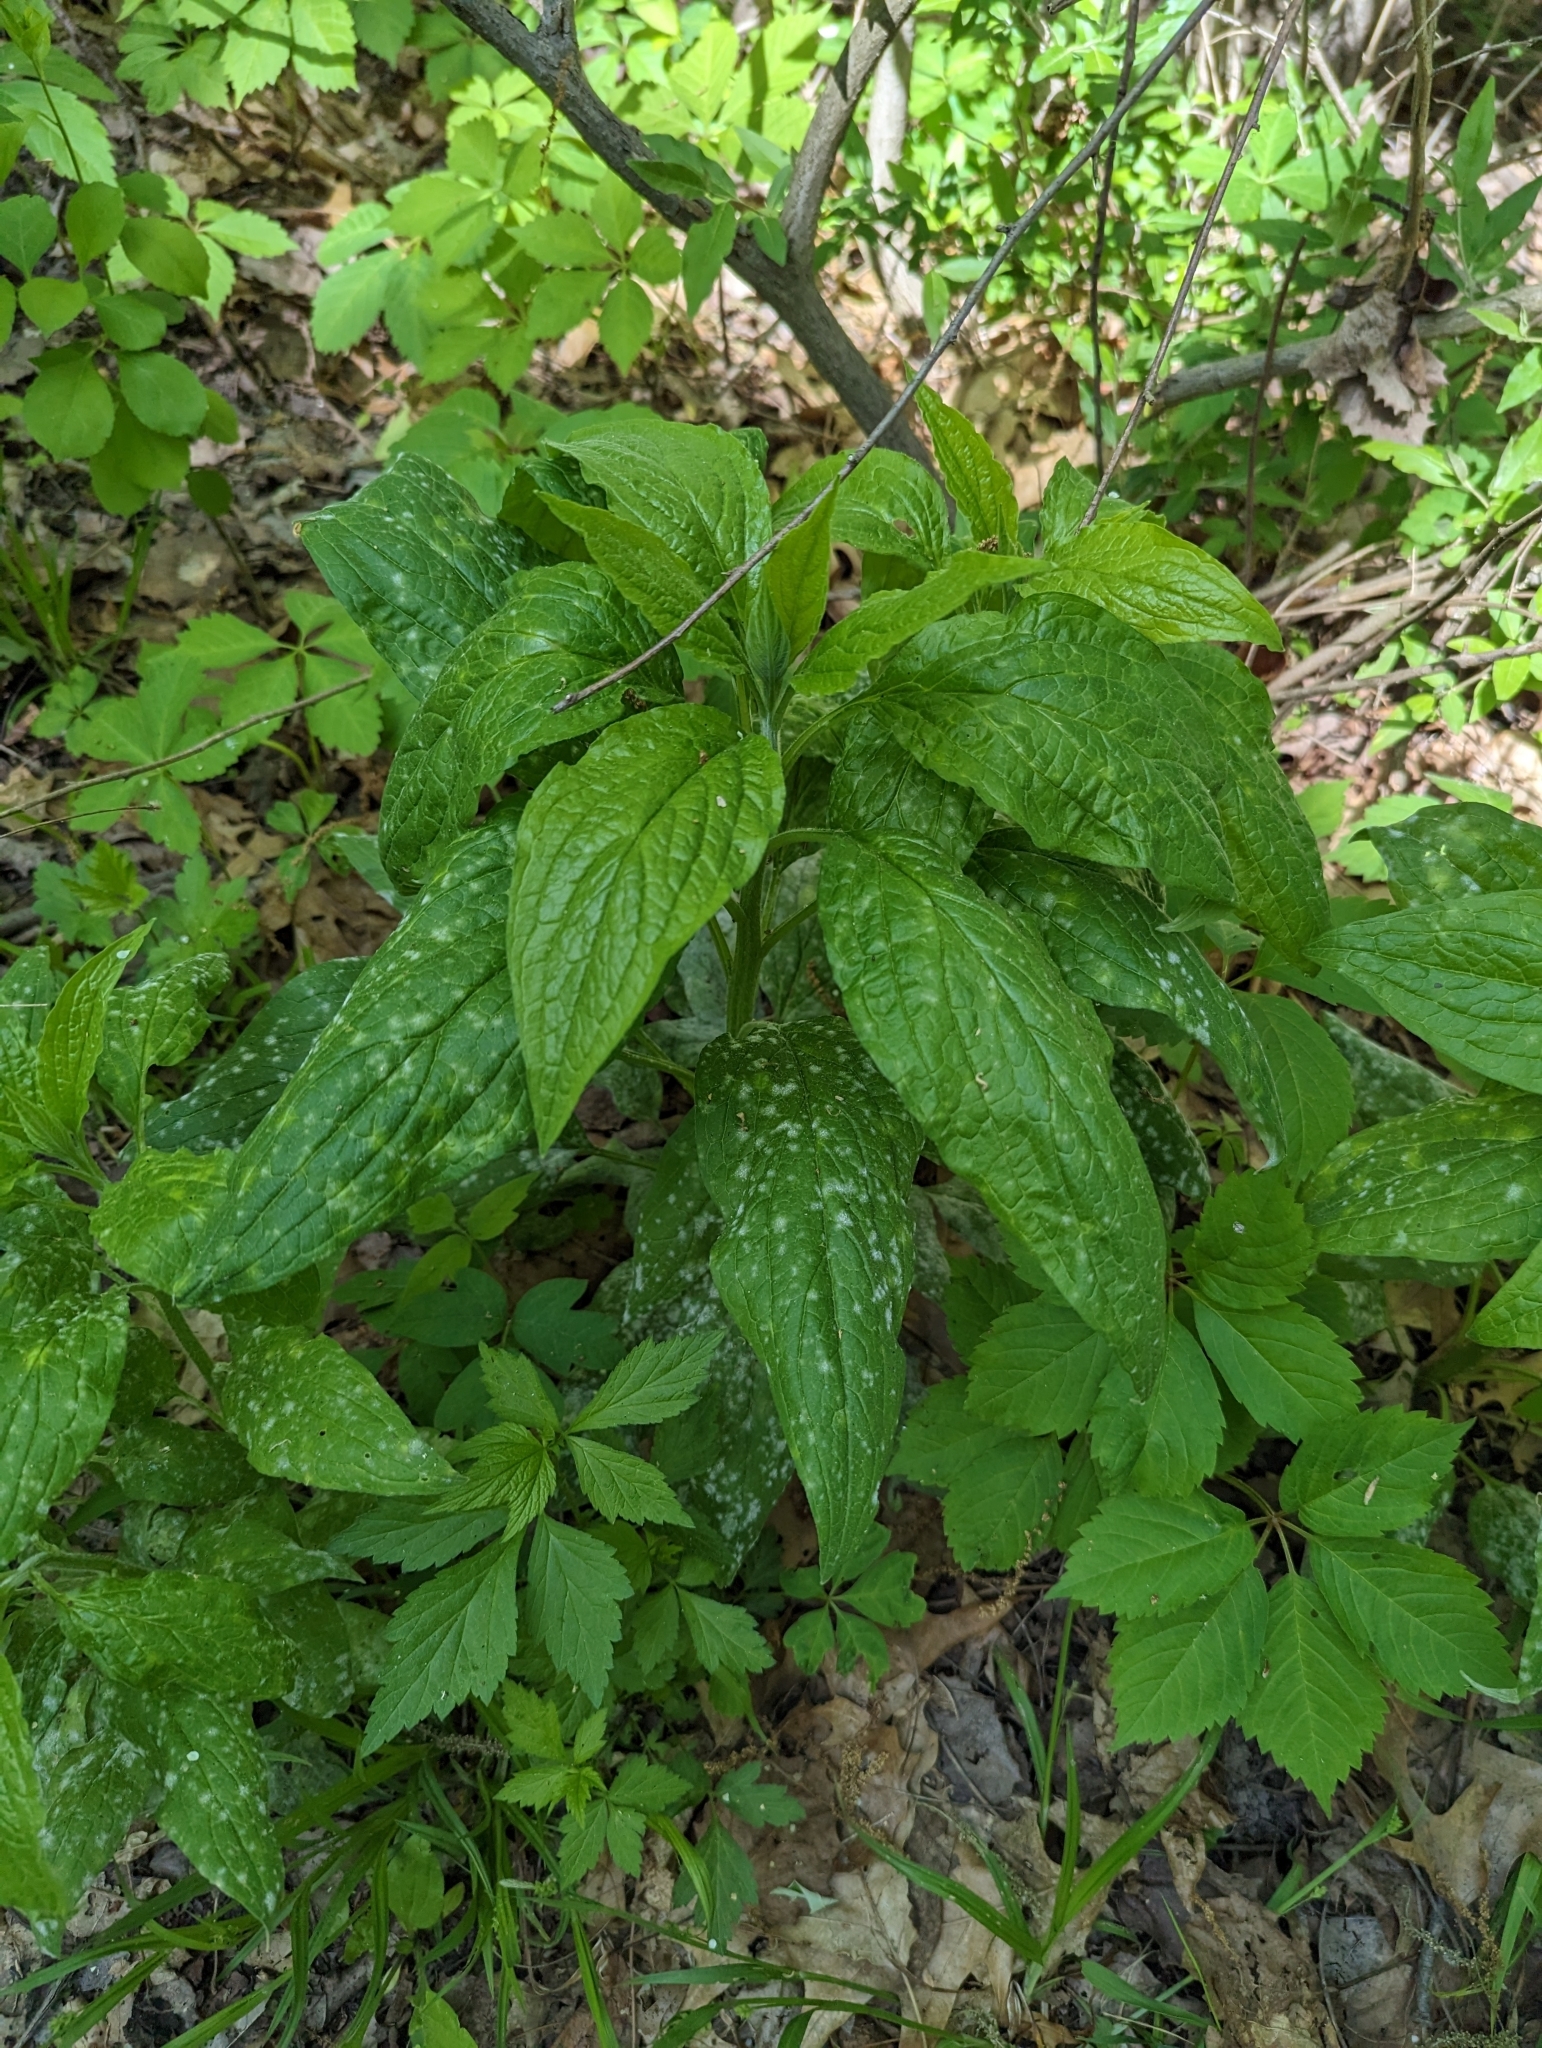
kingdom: Plantae
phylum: Tracheophyta
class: Magnoliopsida
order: Boraginales
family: Boraginaceae
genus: Hackelia
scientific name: Hackelia virginiana
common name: Beggar's-lice
